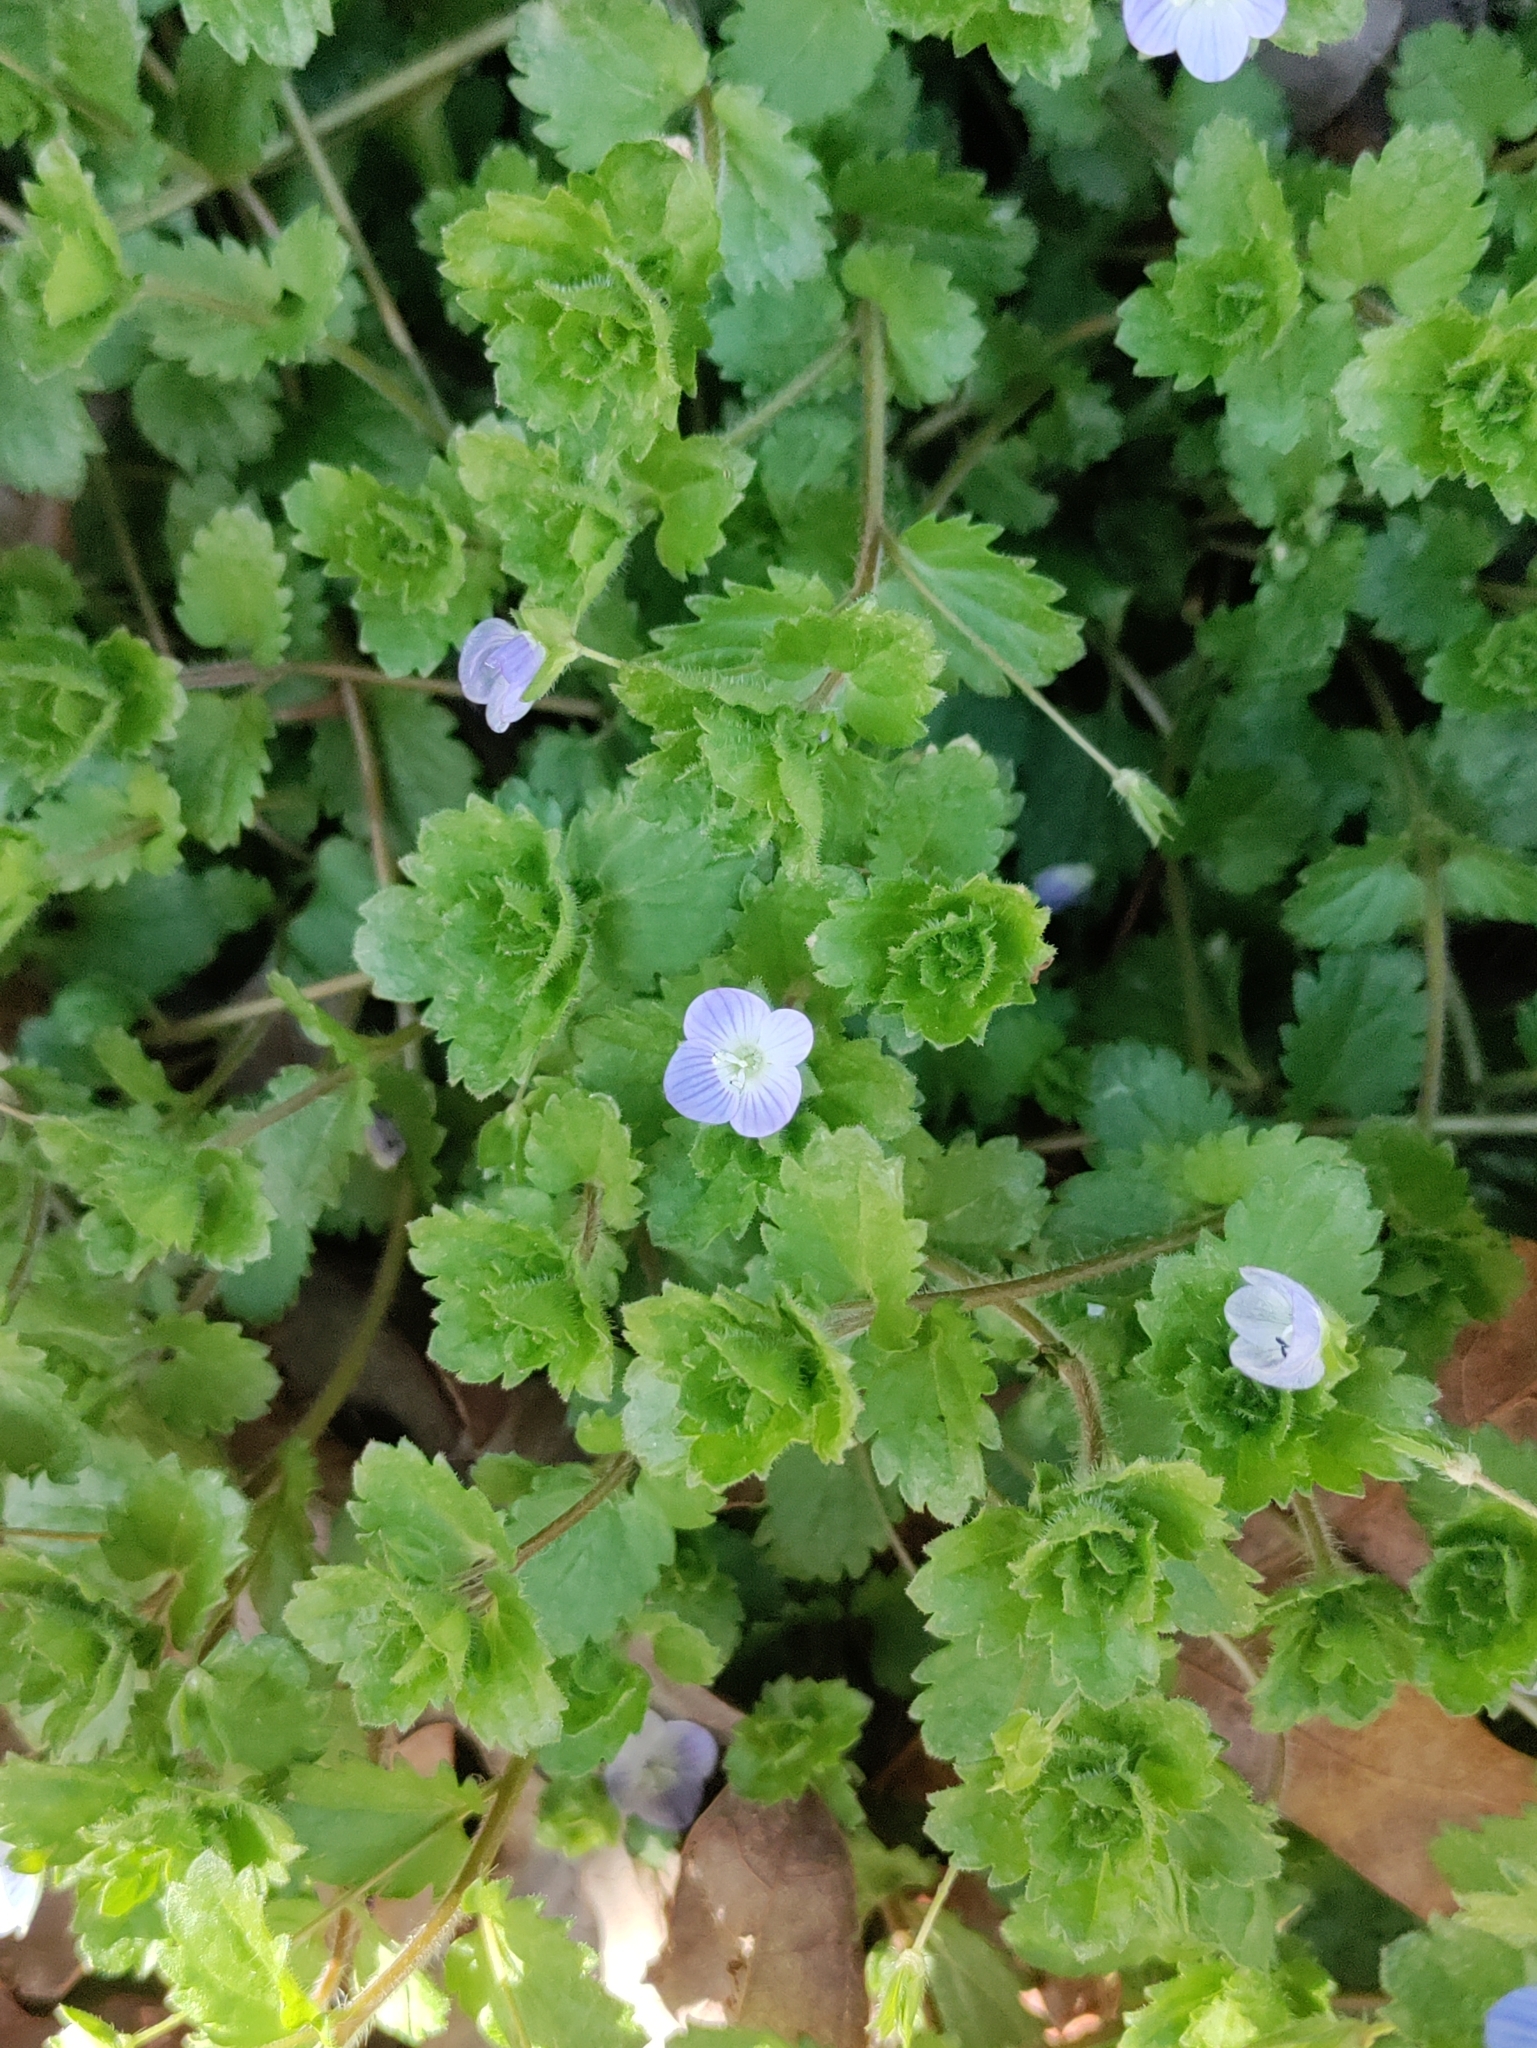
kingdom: Plantae
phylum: Tracheophyta
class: Magnoliopsida
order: Lamiales
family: Plantaginaceae
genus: Veronica
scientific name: Veronica persica
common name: Common field-speedwell
